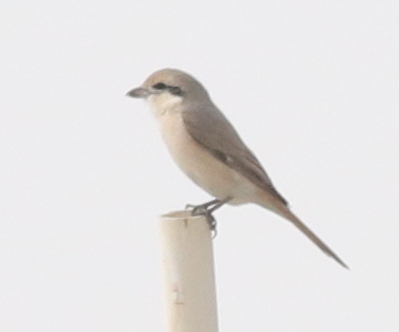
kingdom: Animalia
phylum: Chordata
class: Aves
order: Passeriformes
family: Laniidae
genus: Lanius
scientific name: Lanius isabellinus
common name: Isabelline shrike
